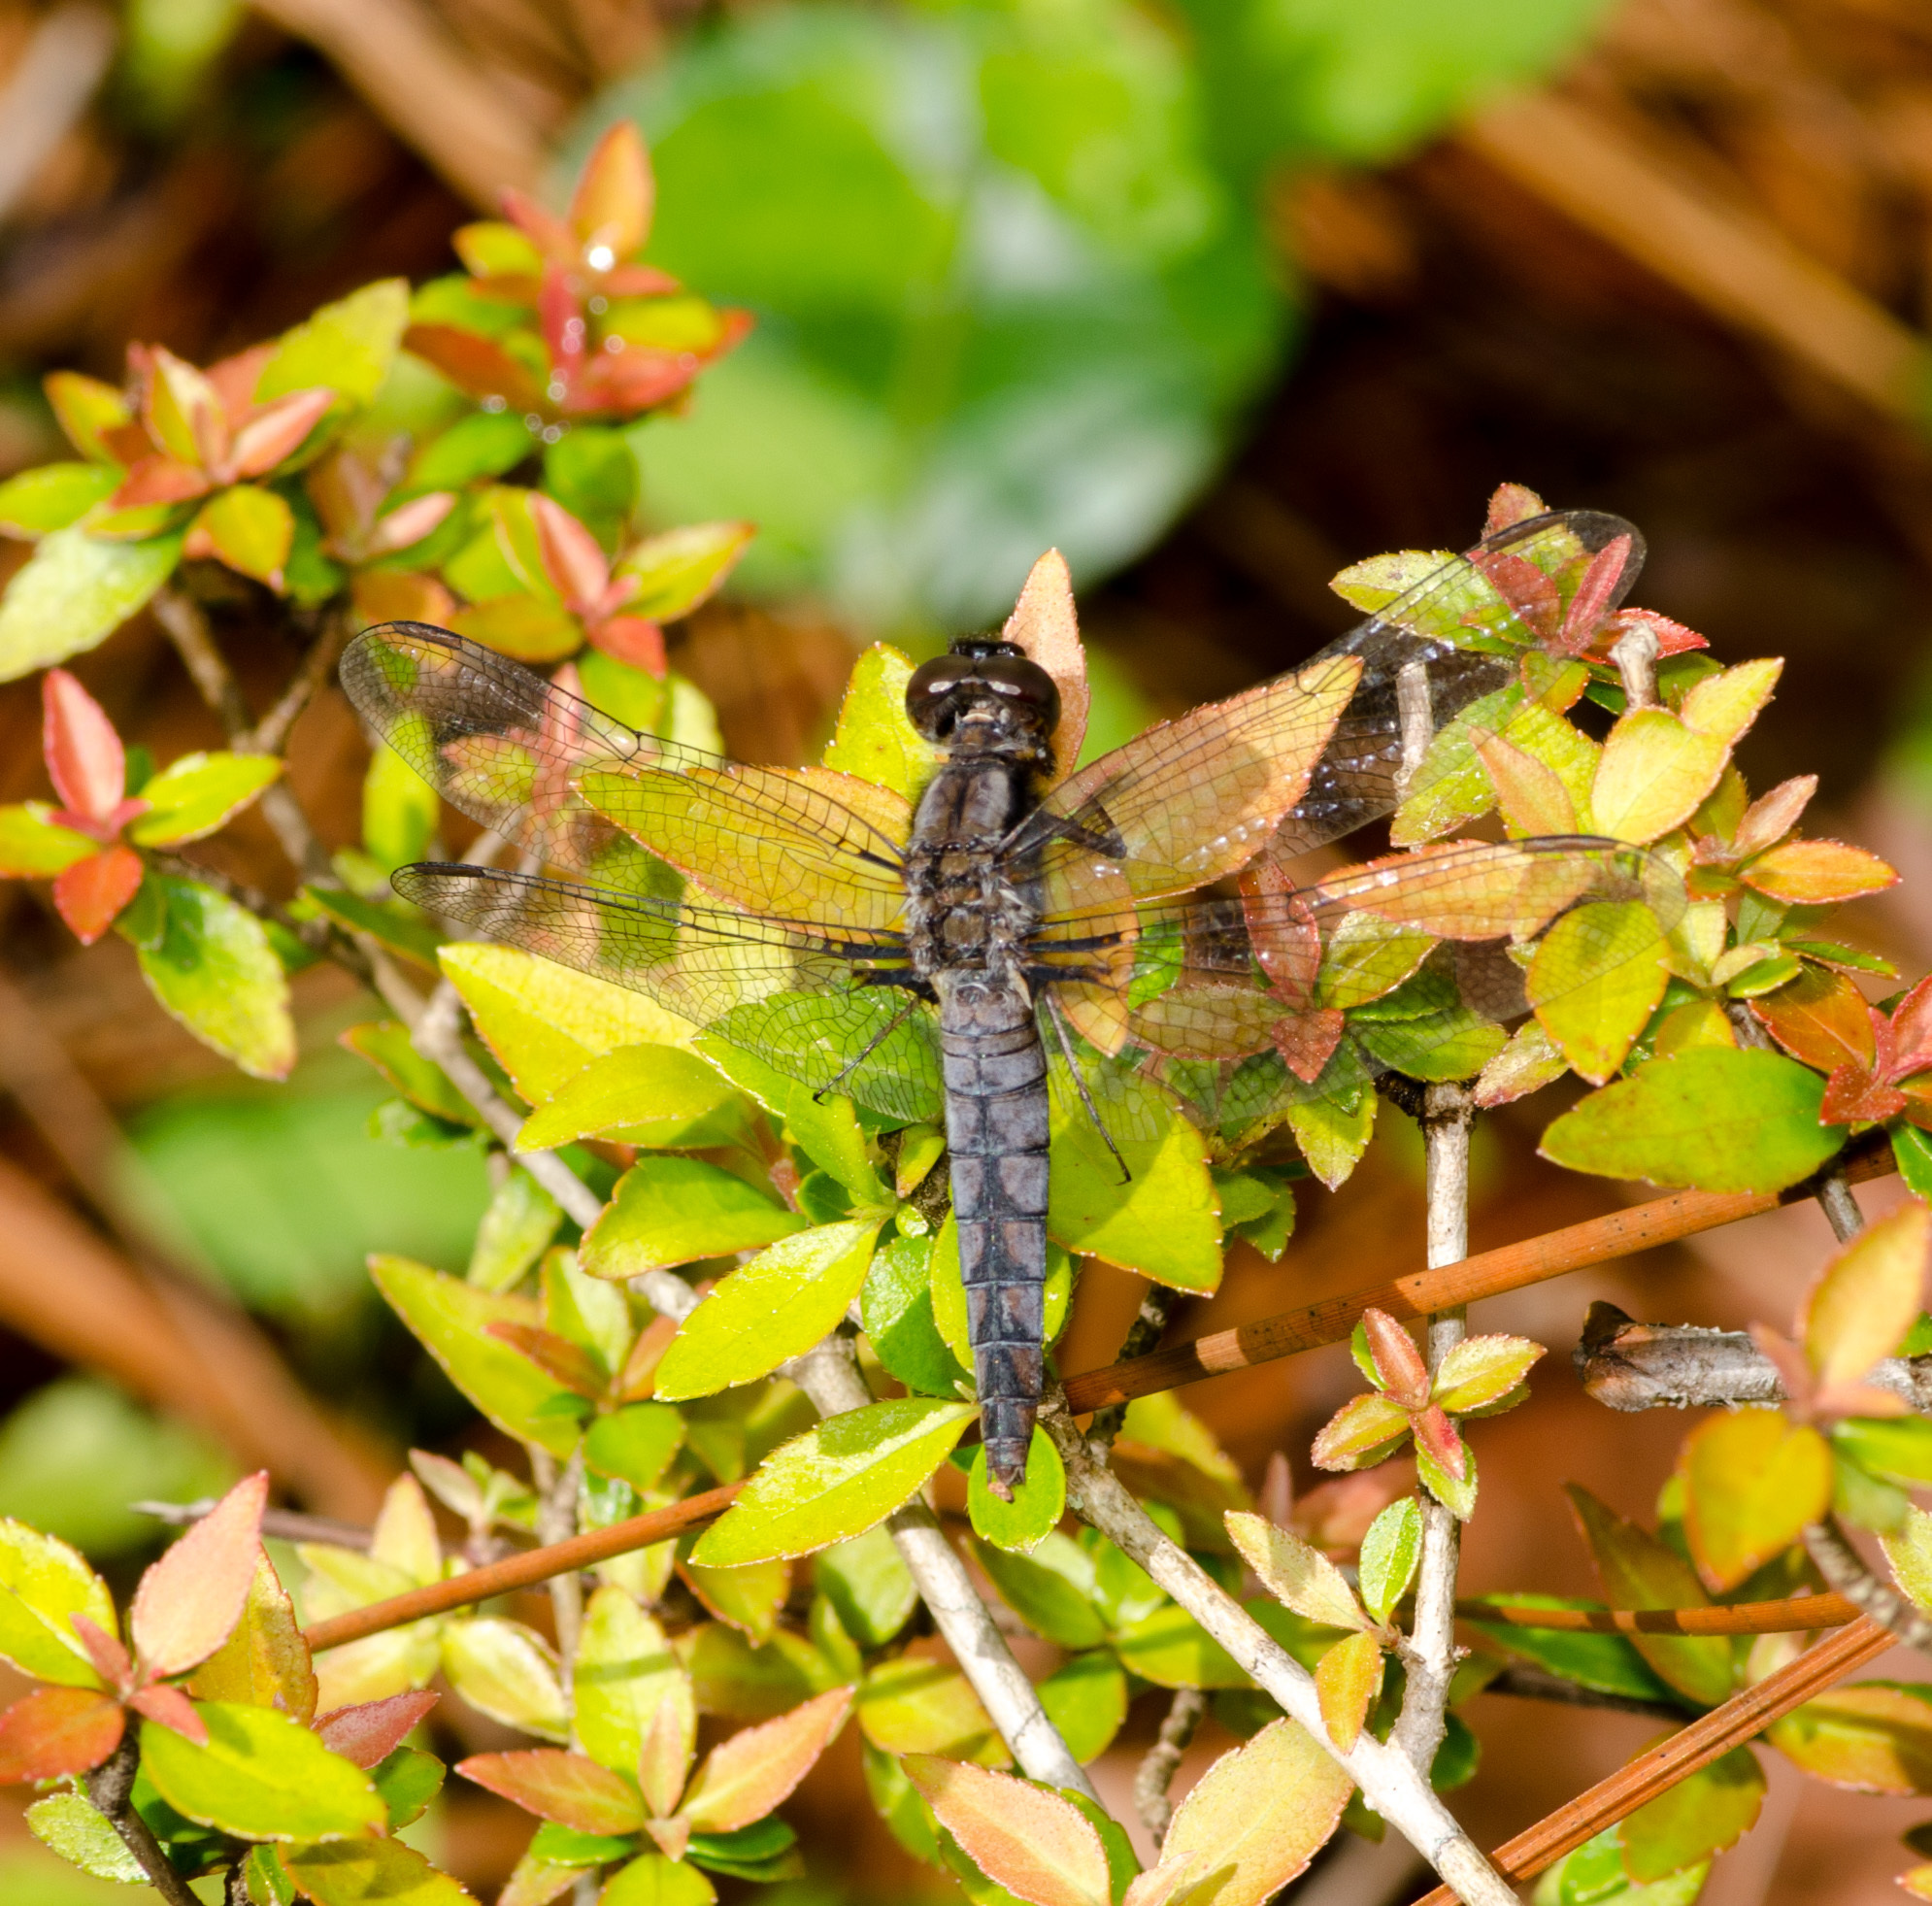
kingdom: Animalia
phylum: Arthropoda
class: Insecta
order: Odonata
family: Libellulidae
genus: Ladona
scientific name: Ladona deplanata
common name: Blue corporal
